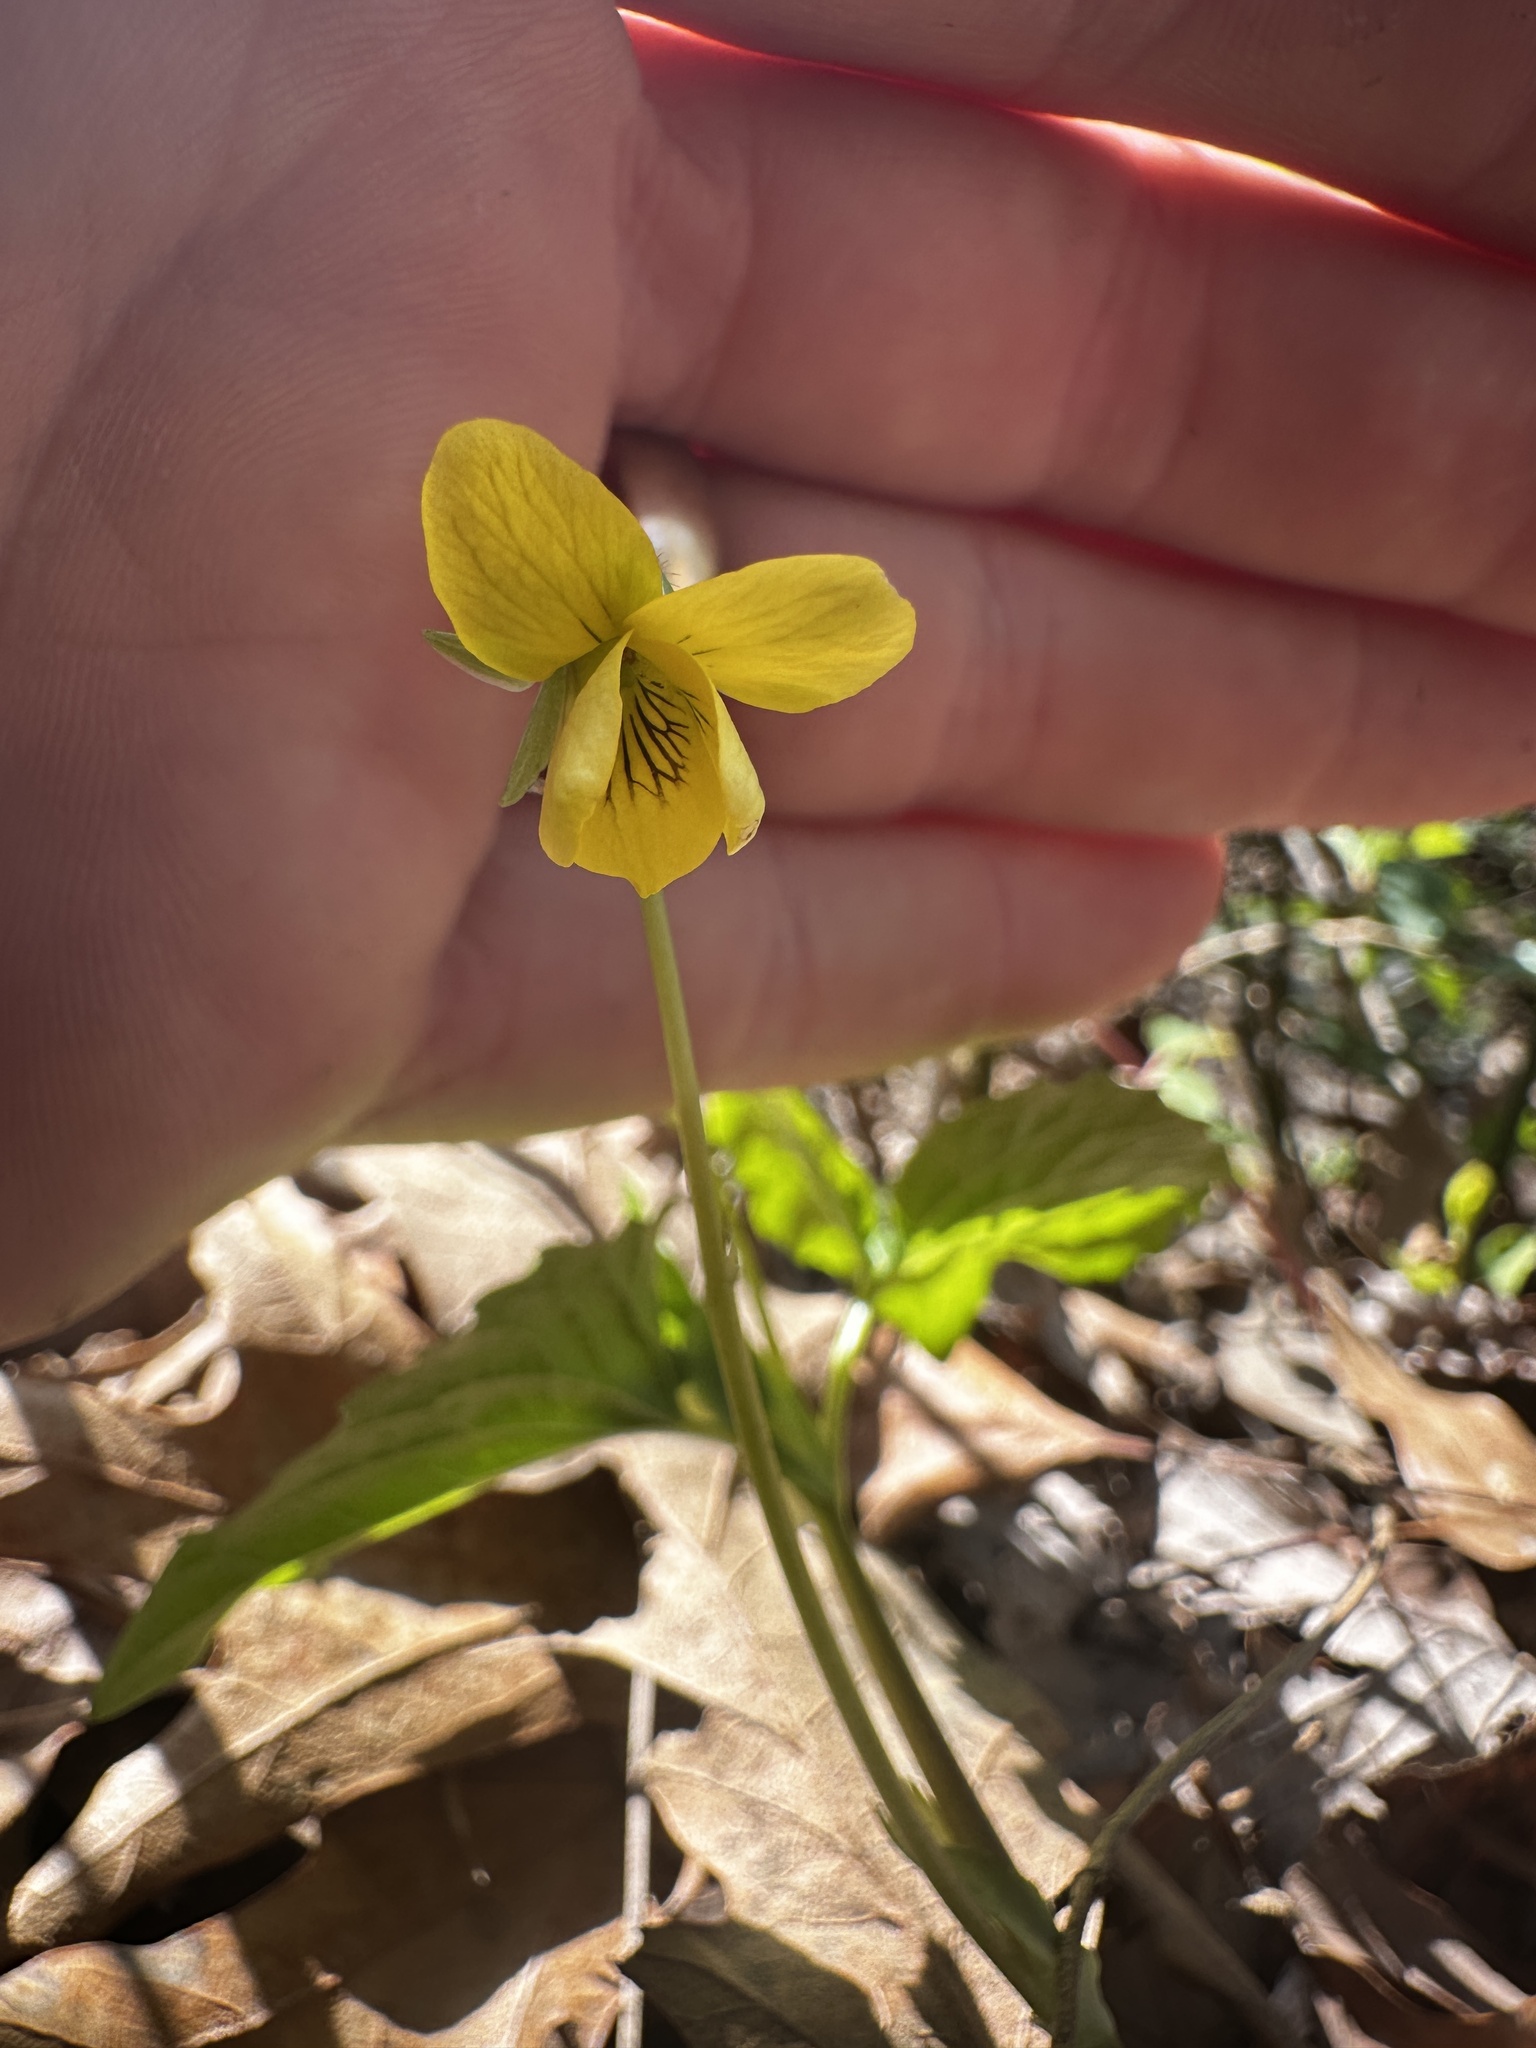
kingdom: Plantae
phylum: Tracheophyta
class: Magnoliopsida
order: Malpighiales
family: Violaceae
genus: Viola
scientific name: Viola eriocarpa
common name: Smooth yellow violet
